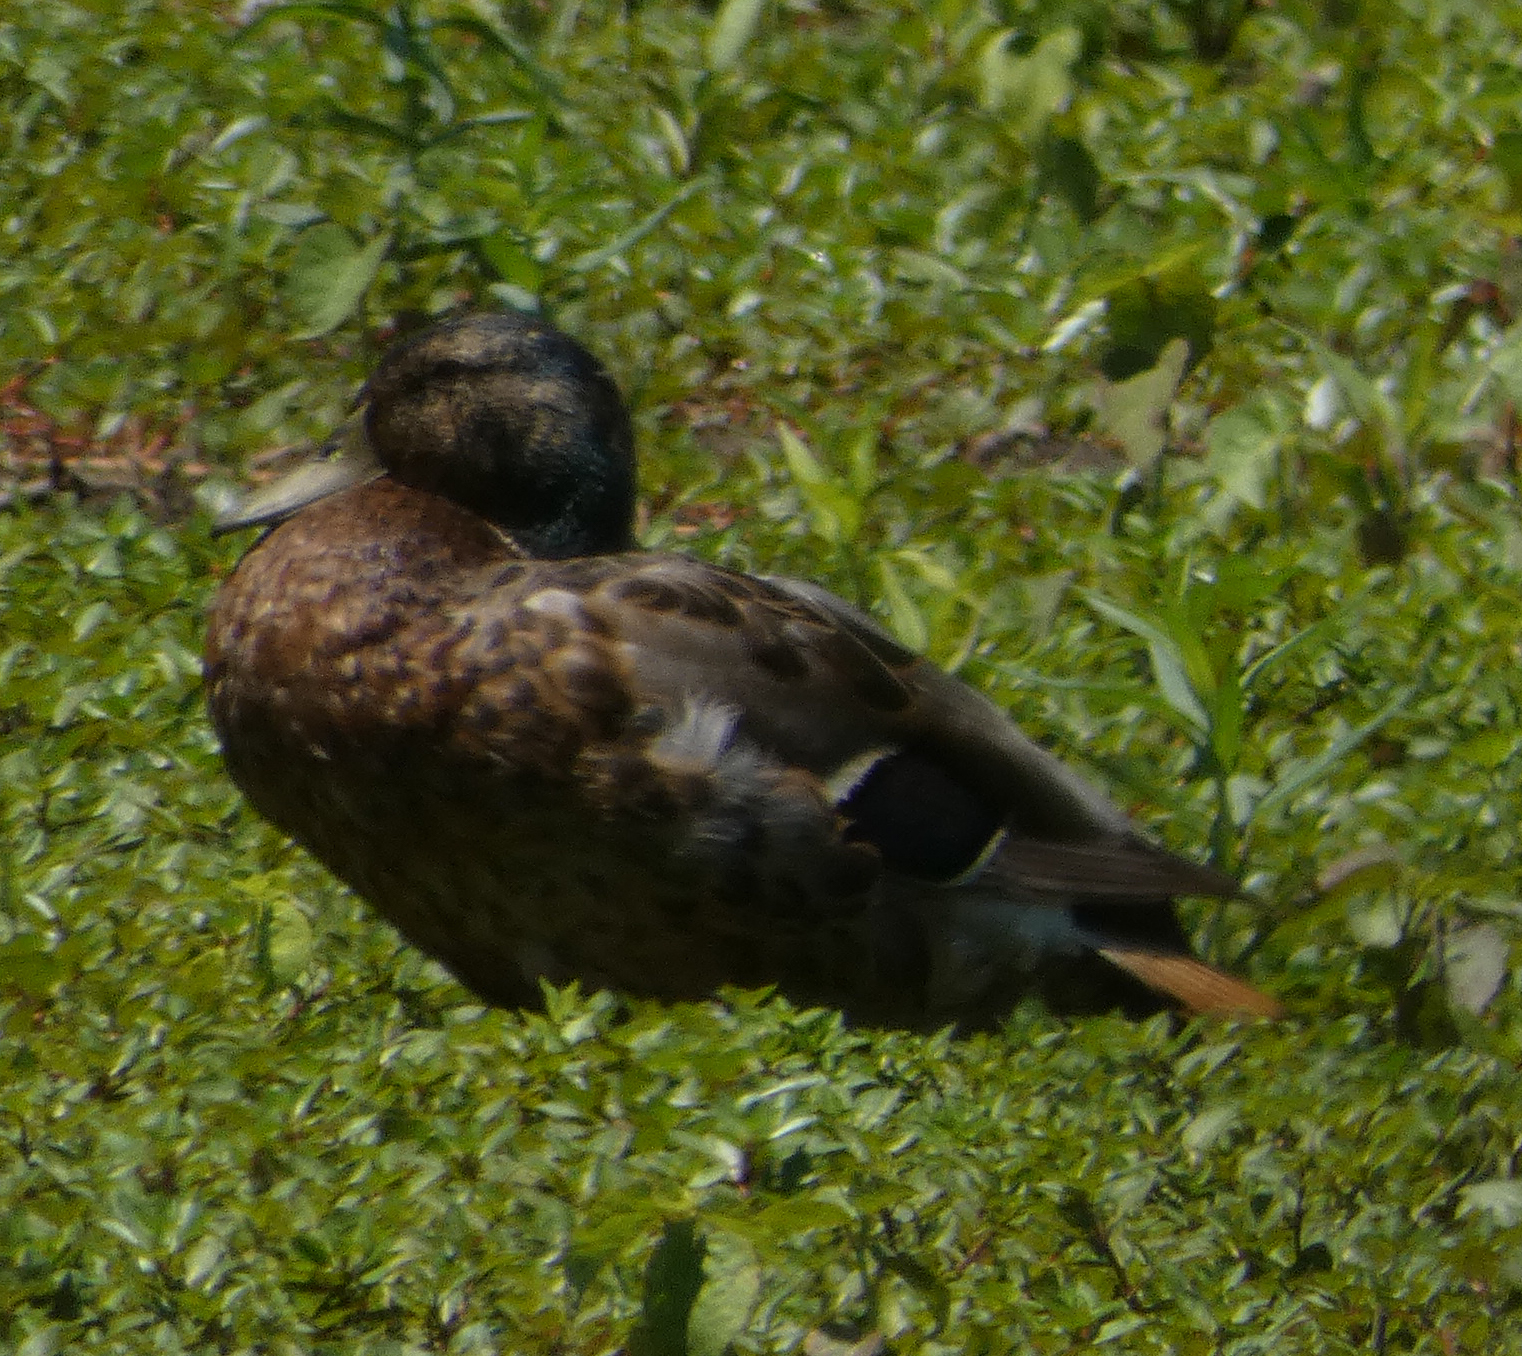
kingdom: Animalia
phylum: Chordata
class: Aves
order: Anseriformes
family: Anatidae
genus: Anas
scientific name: Anas platyrhynchos
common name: Mallard
